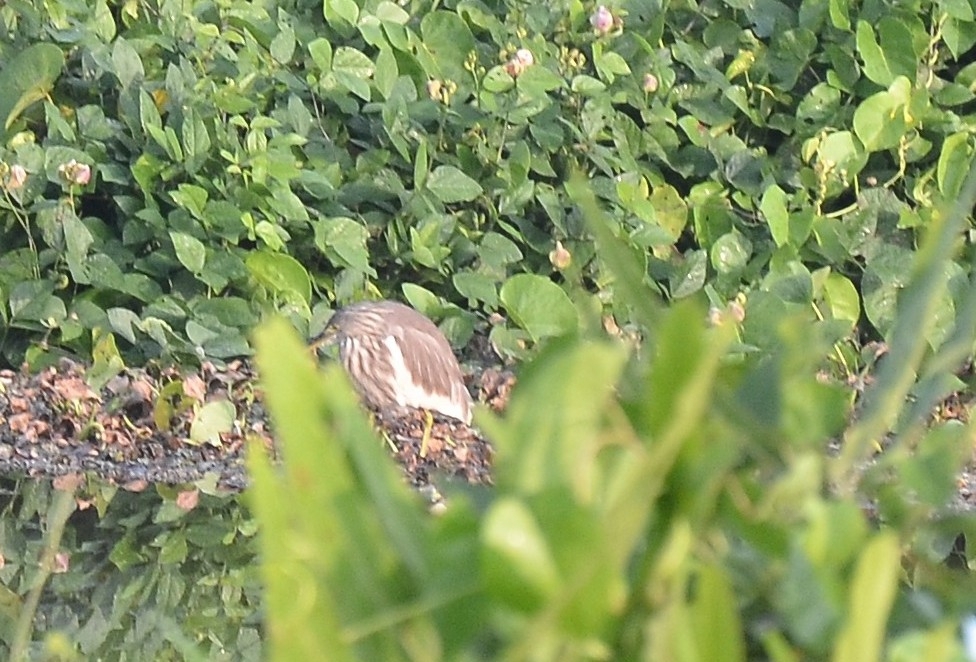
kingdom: Animalia
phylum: Chordata
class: Aves
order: Pelecaniformes
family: Ardeidae
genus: Ardeola
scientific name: Ardeola grayii
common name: Indian pond heron
